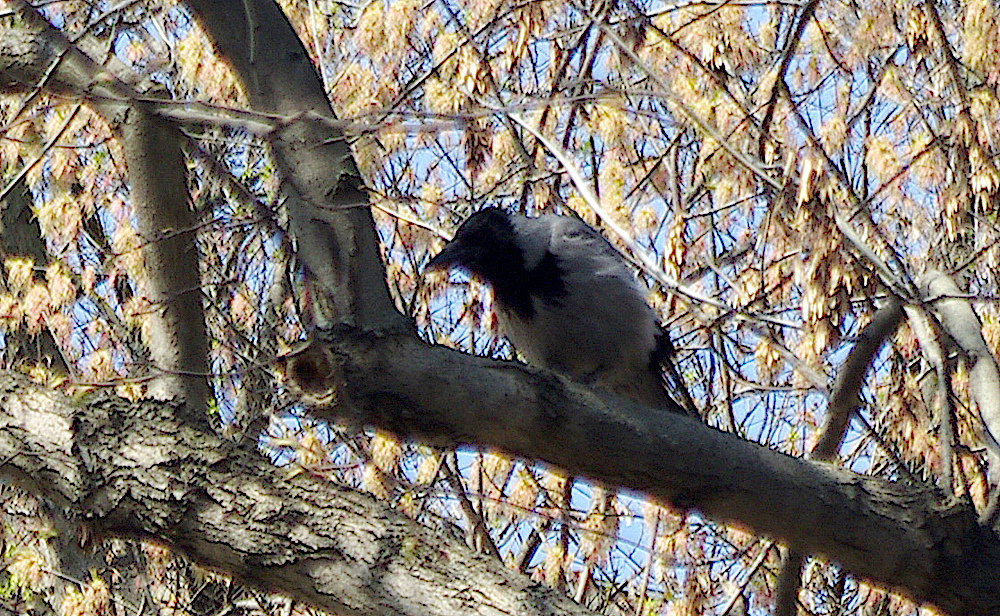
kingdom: Animalia
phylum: Chordata
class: Aves
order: Passeriformes
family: Corvidae
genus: Corvus
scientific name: Corvus cornix
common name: Hooded crow
